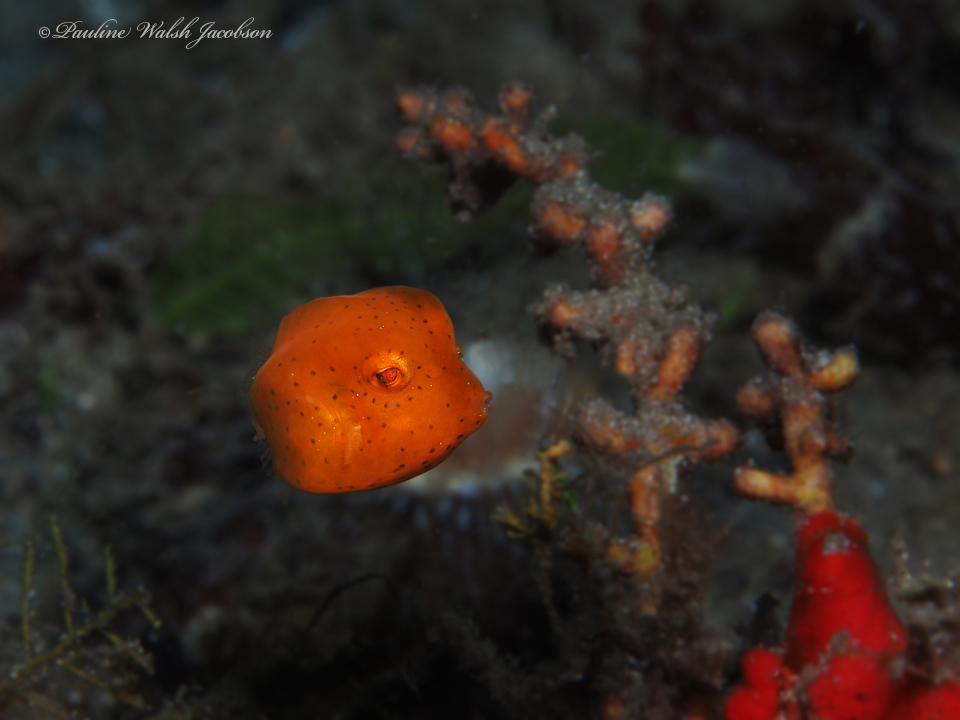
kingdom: Animalia
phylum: Chordata
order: Tetraodontiformes
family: Ostraciidae
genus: Acanthostracion
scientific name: Acanthostracion polygonius
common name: Honeycomb cowfish
